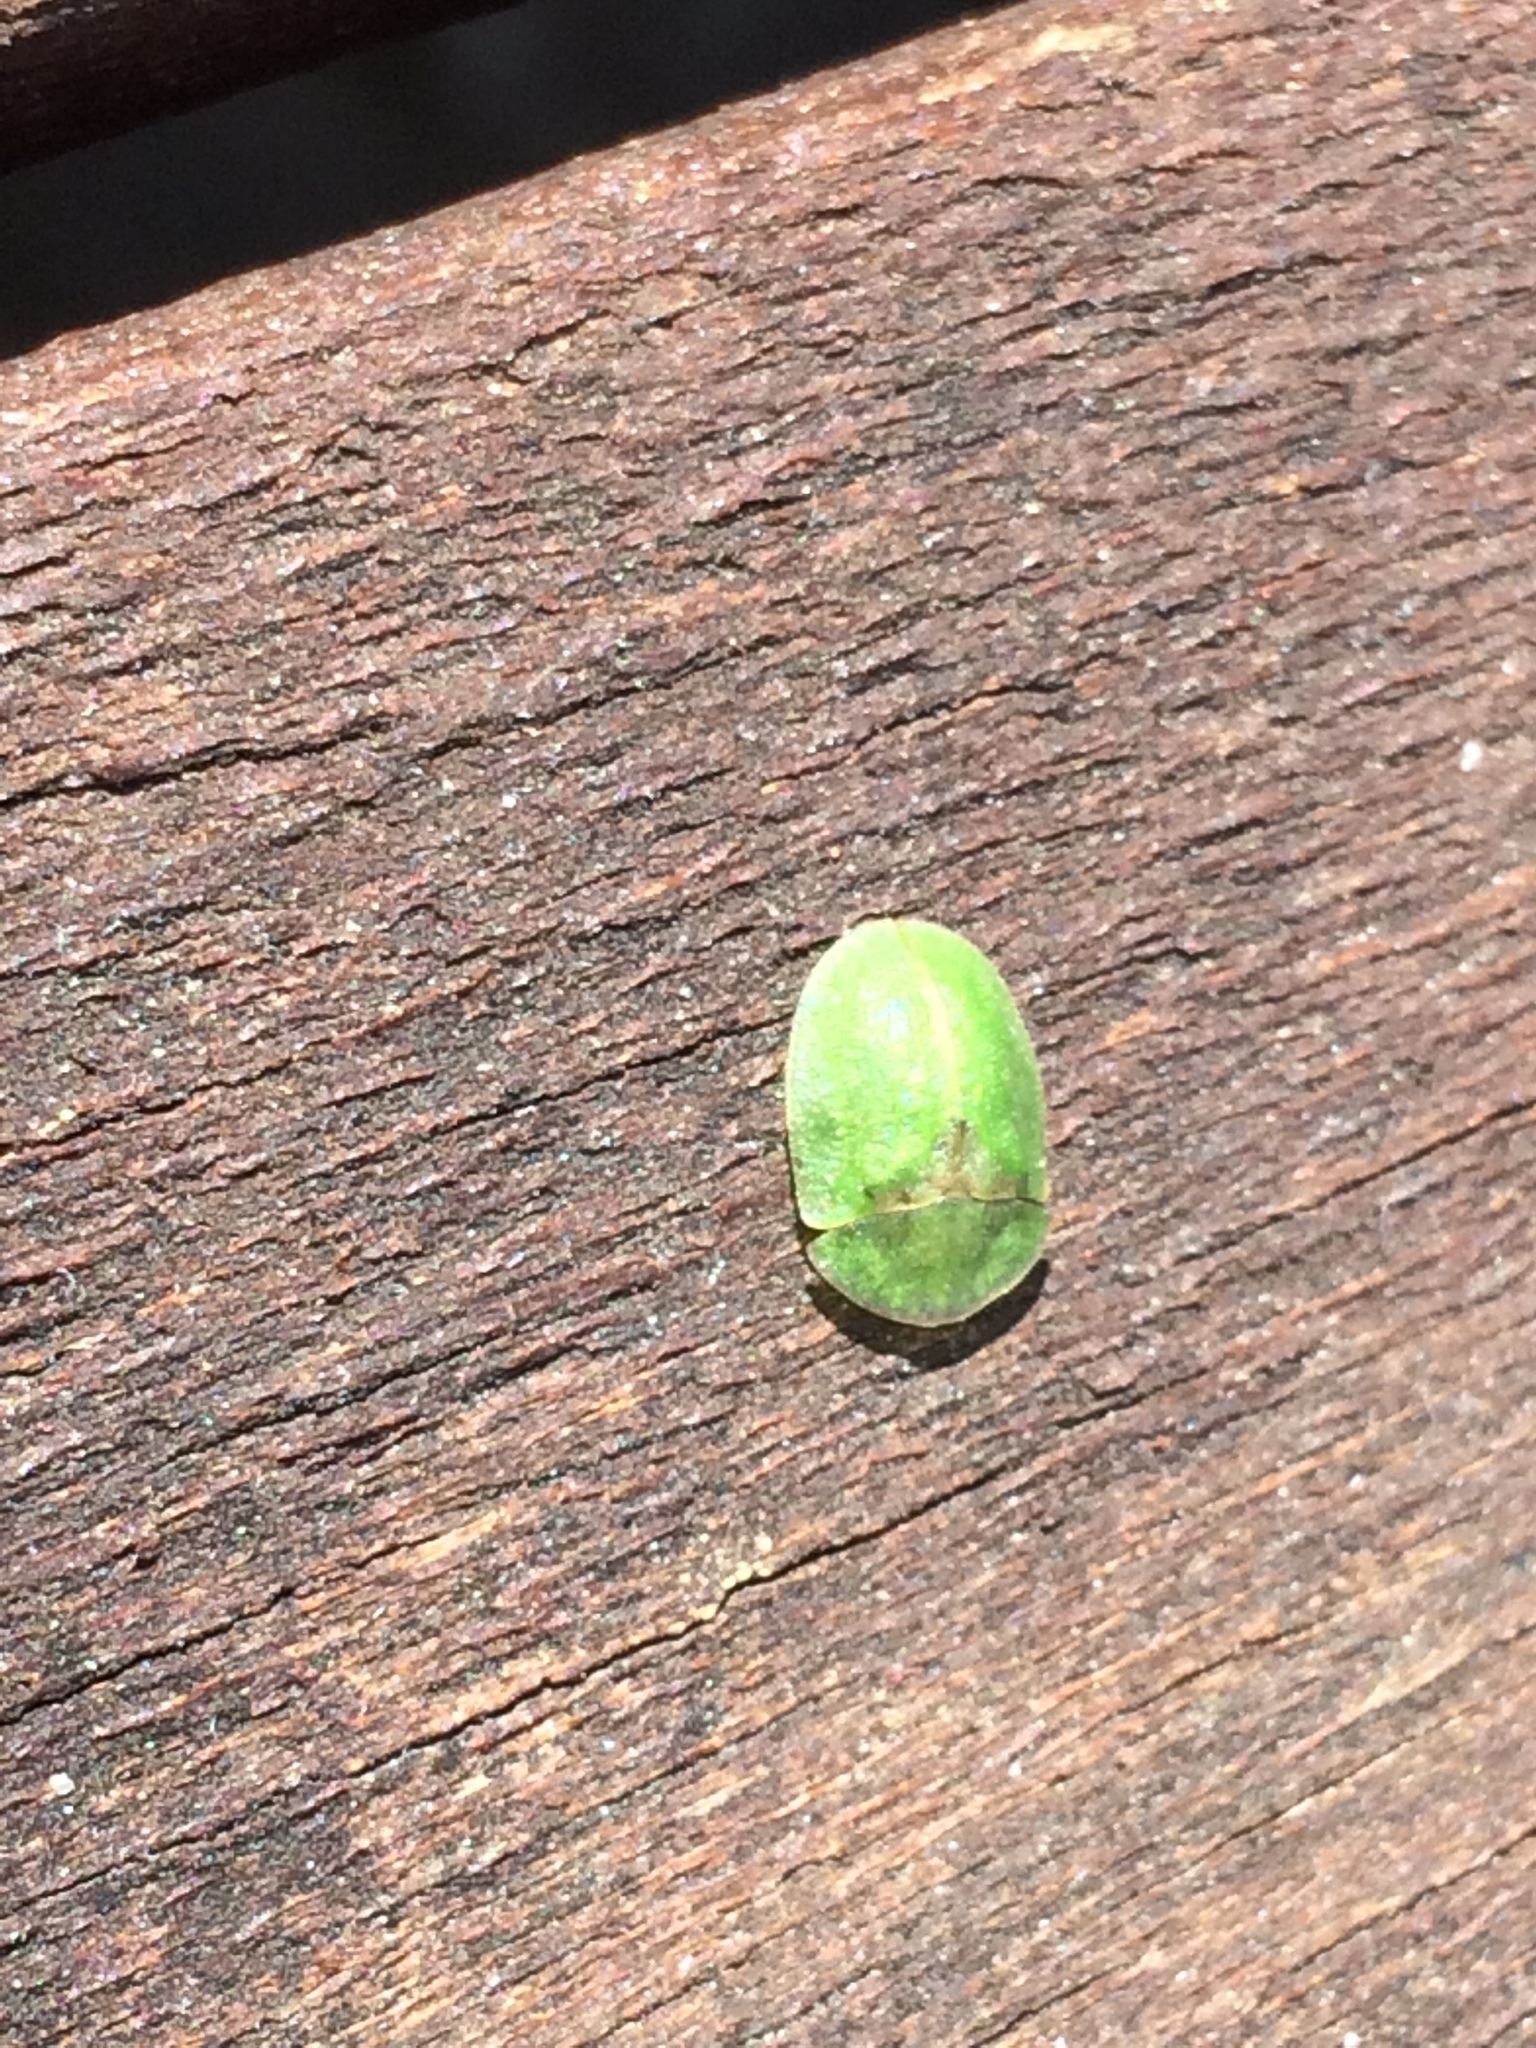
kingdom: Animalia
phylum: Arthropoda
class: Insecta
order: Coleoptera
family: Chrysomelidae
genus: Cassida
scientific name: Cassida rubiginosa
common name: Thistle tortoise beetle
